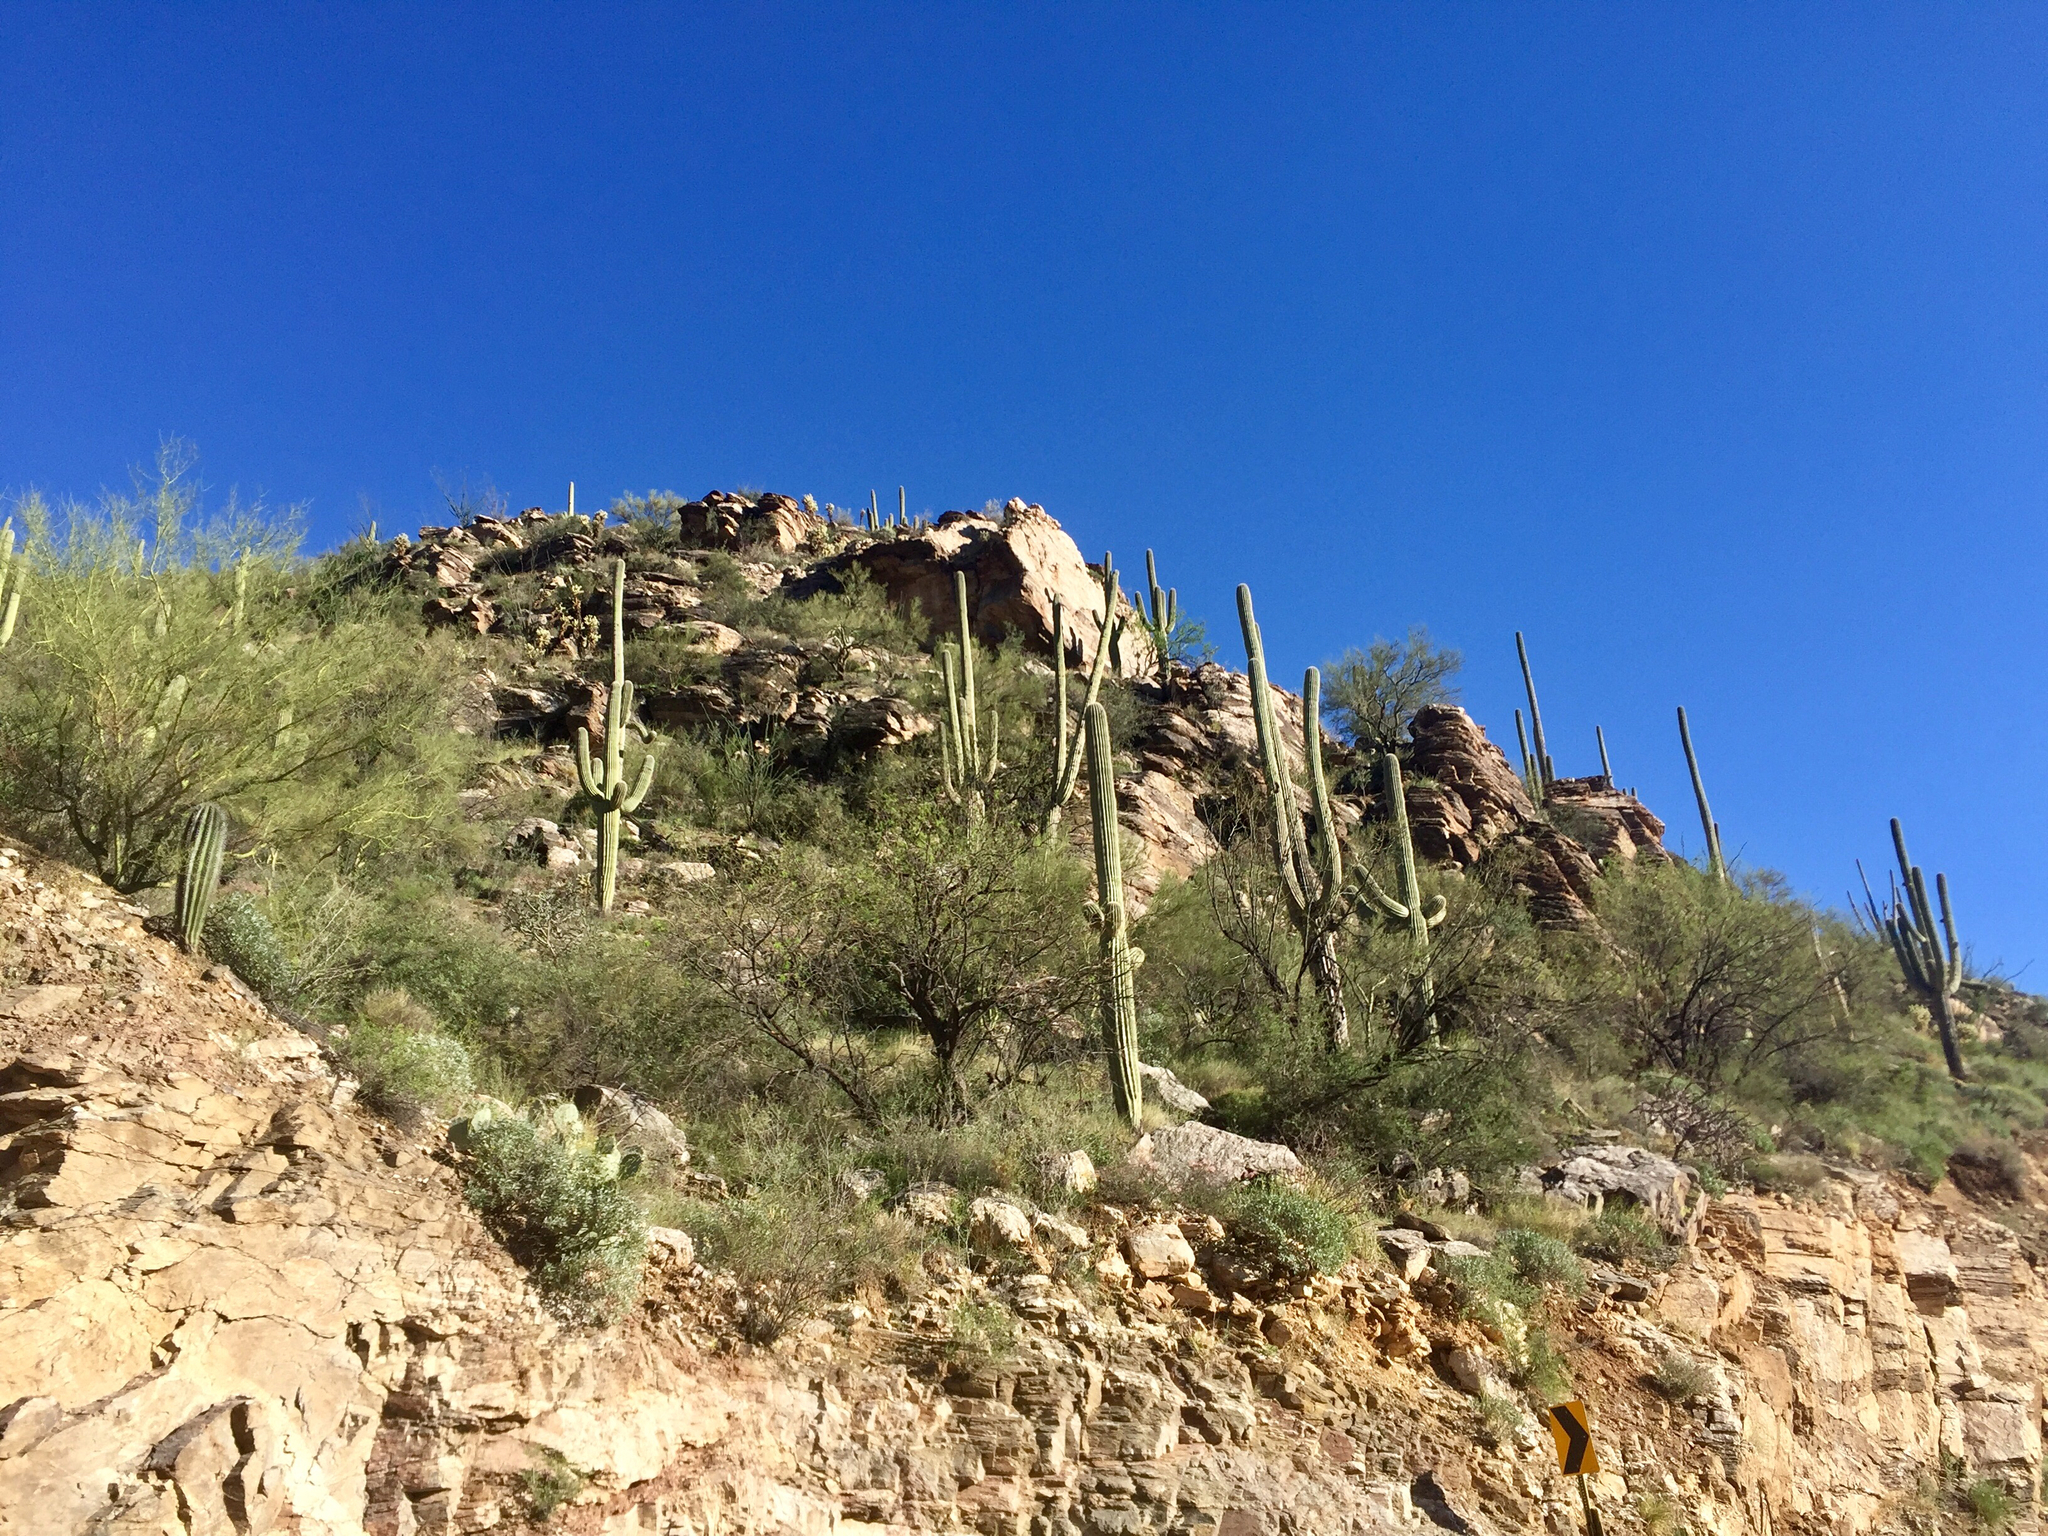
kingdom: Plantae
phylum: Tracheophyta
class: Magnoliopsida
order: Caryophyllales
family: Cactaceae
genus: Carnegiea
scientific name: Carnegiea gigantea
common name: Saguaro
